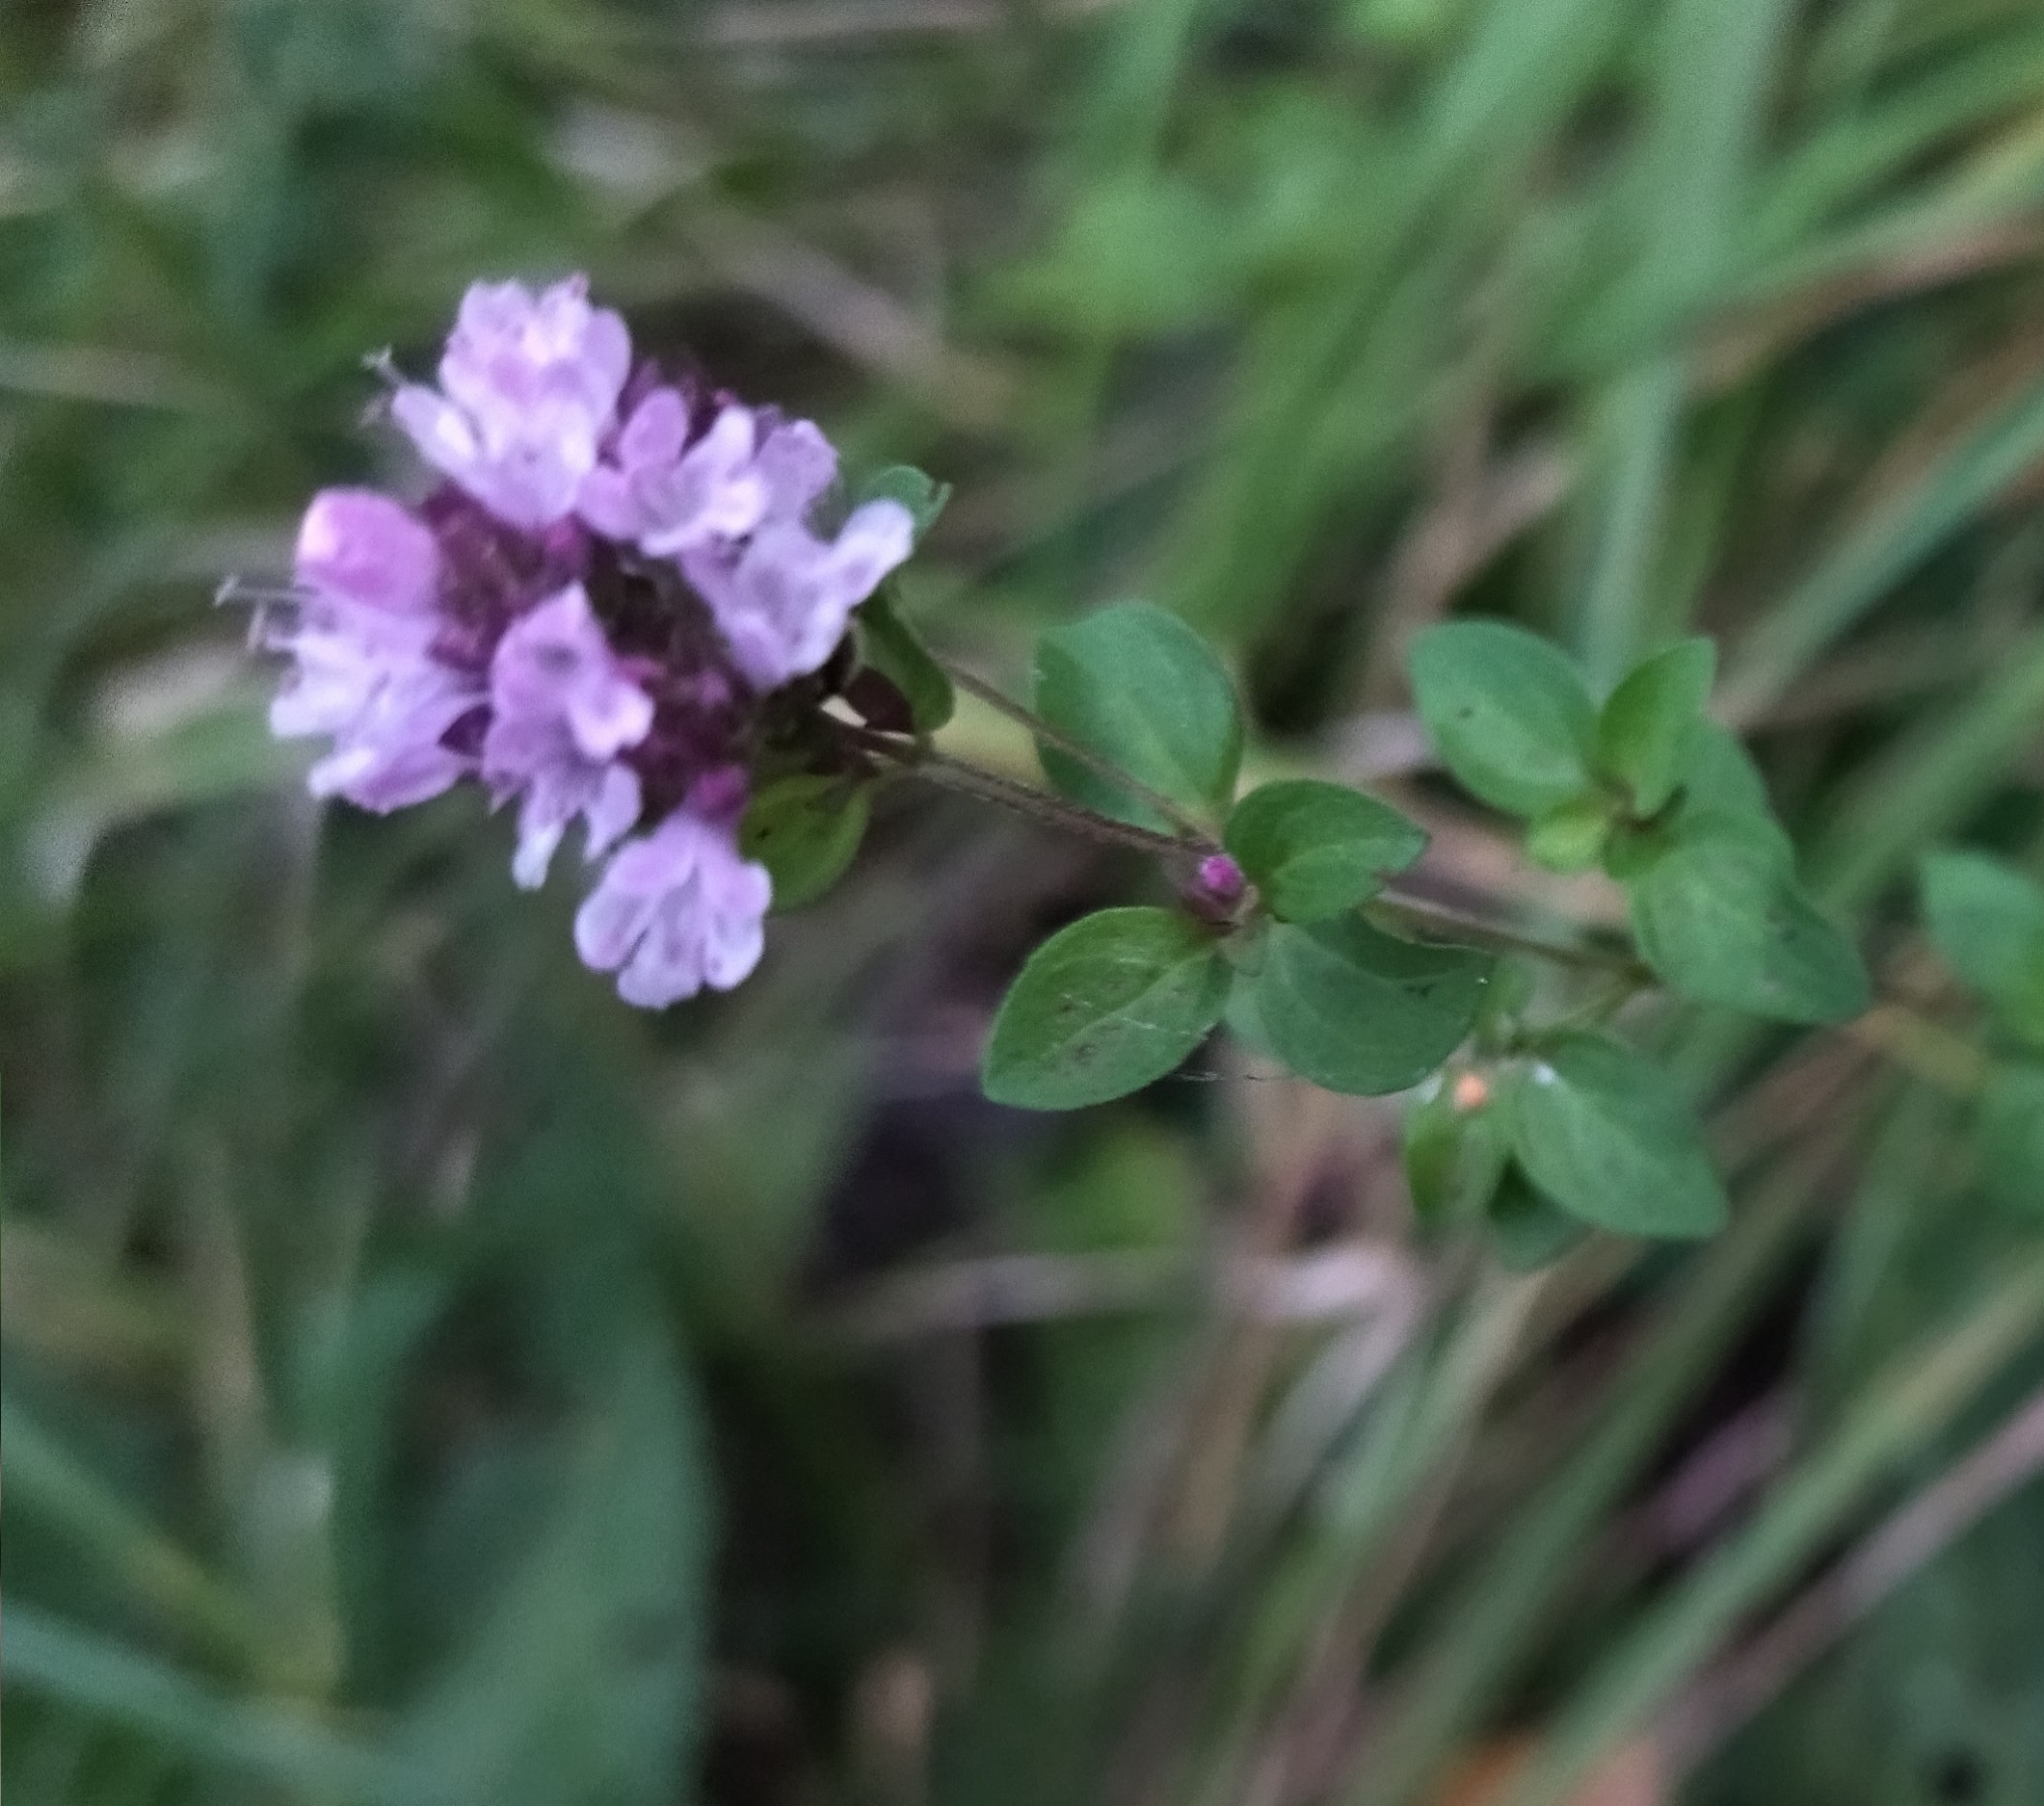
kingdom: Plantae
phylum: Tracheophyta
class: Magnoliopsida
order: Lamiales
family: Lamiaceae
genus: Origanum
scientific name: Origanum vulgare
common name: Wild marjoram
